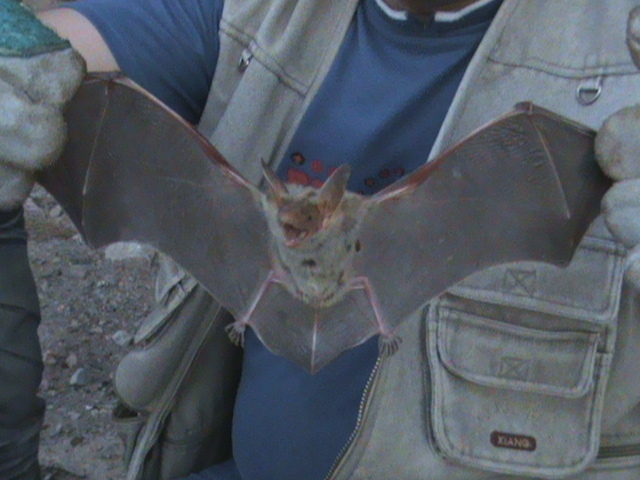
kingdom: Animalia
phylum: Chordata
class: Mammalia
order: Chiroptera
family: Vespertilionidae
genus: Myotis
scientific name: Myotis punicus
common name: Maghrebian myotis
